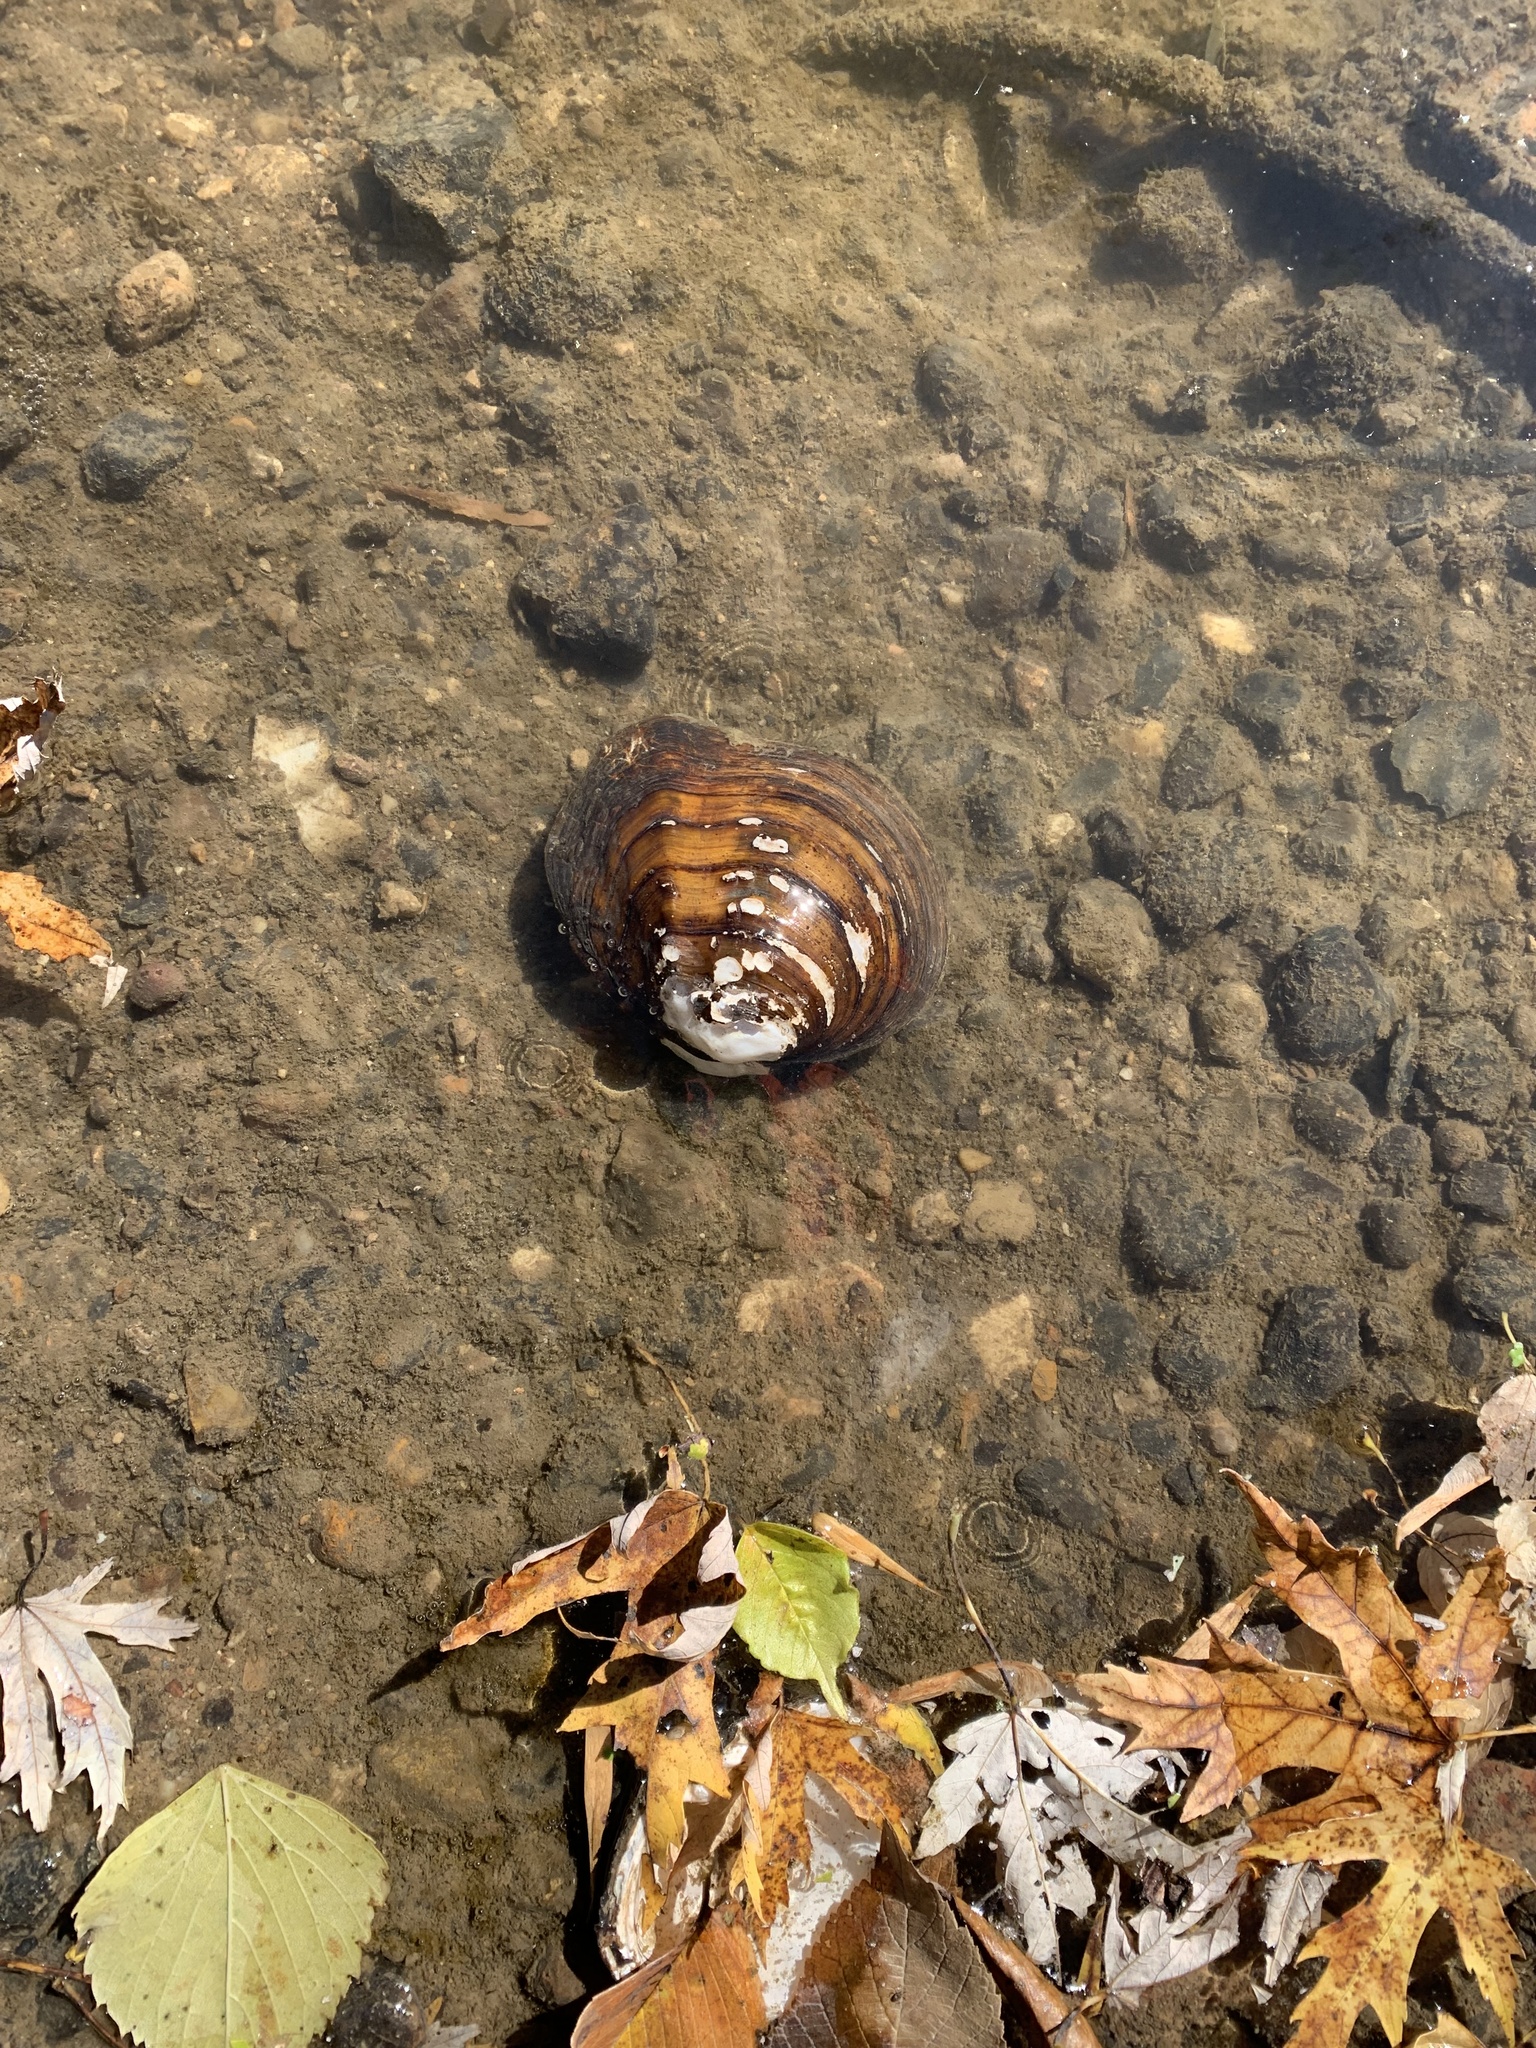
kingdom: Animalia
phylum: Mollusca
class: Bivalvia
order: Unionida
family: Unionidae
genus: Quadrula
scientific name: Quadrula quadrula
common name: Mapleleaf
